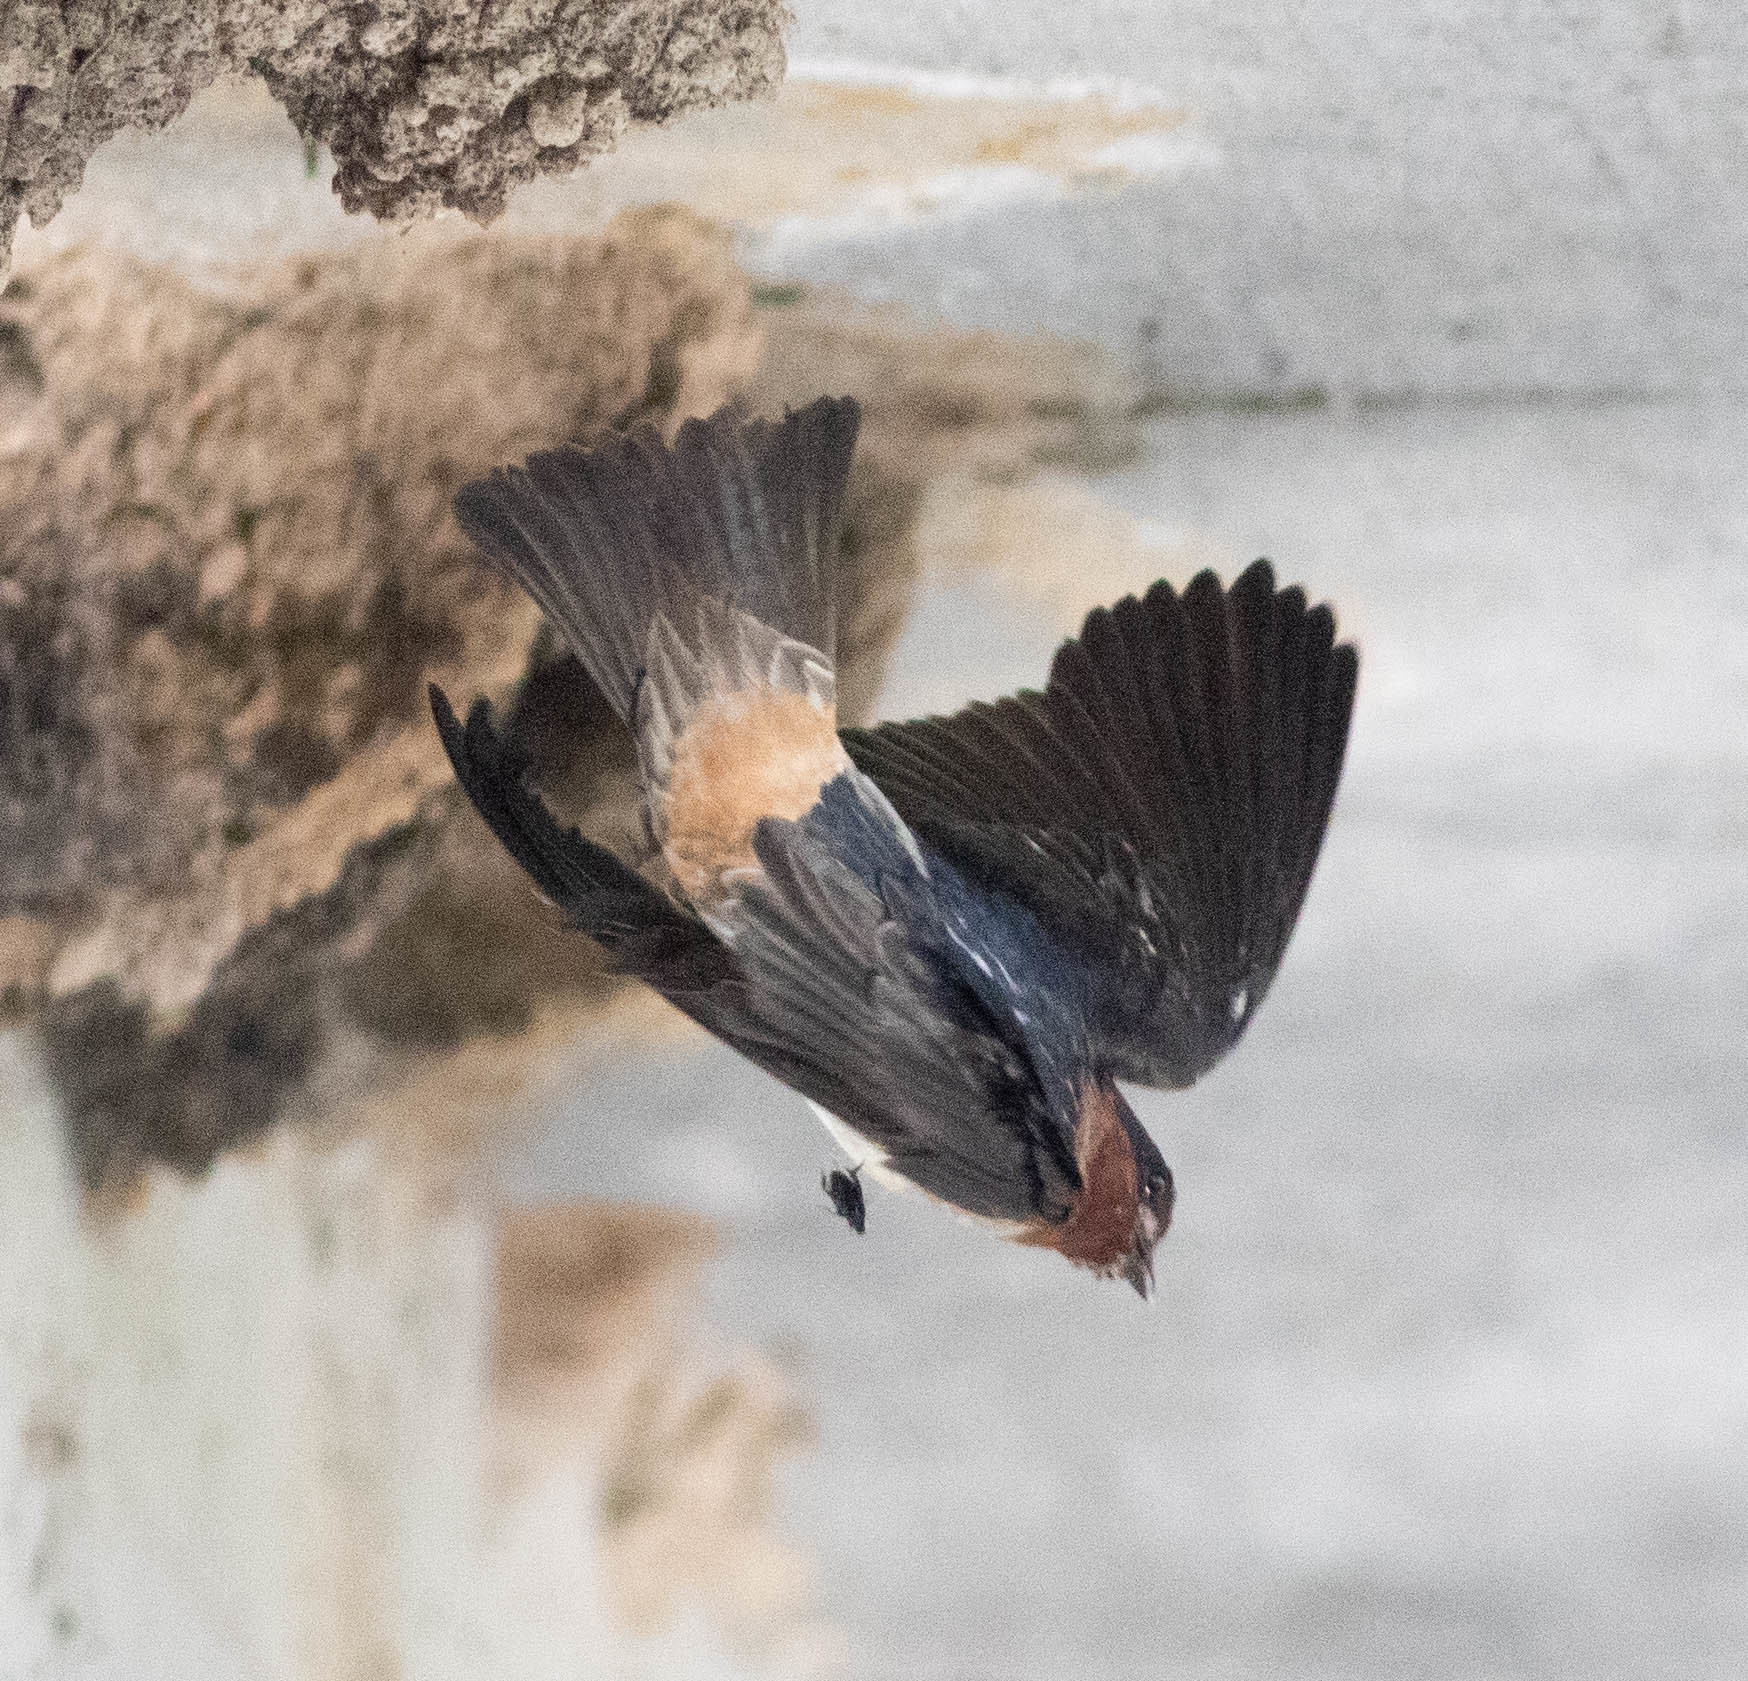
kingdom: Animalia
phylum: Chordata
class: Aves
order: Passeriformes
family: Hirundinidae
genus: Petrochelidon
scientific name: Petrochelidon pyrrhonota
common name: American cliff swallow
